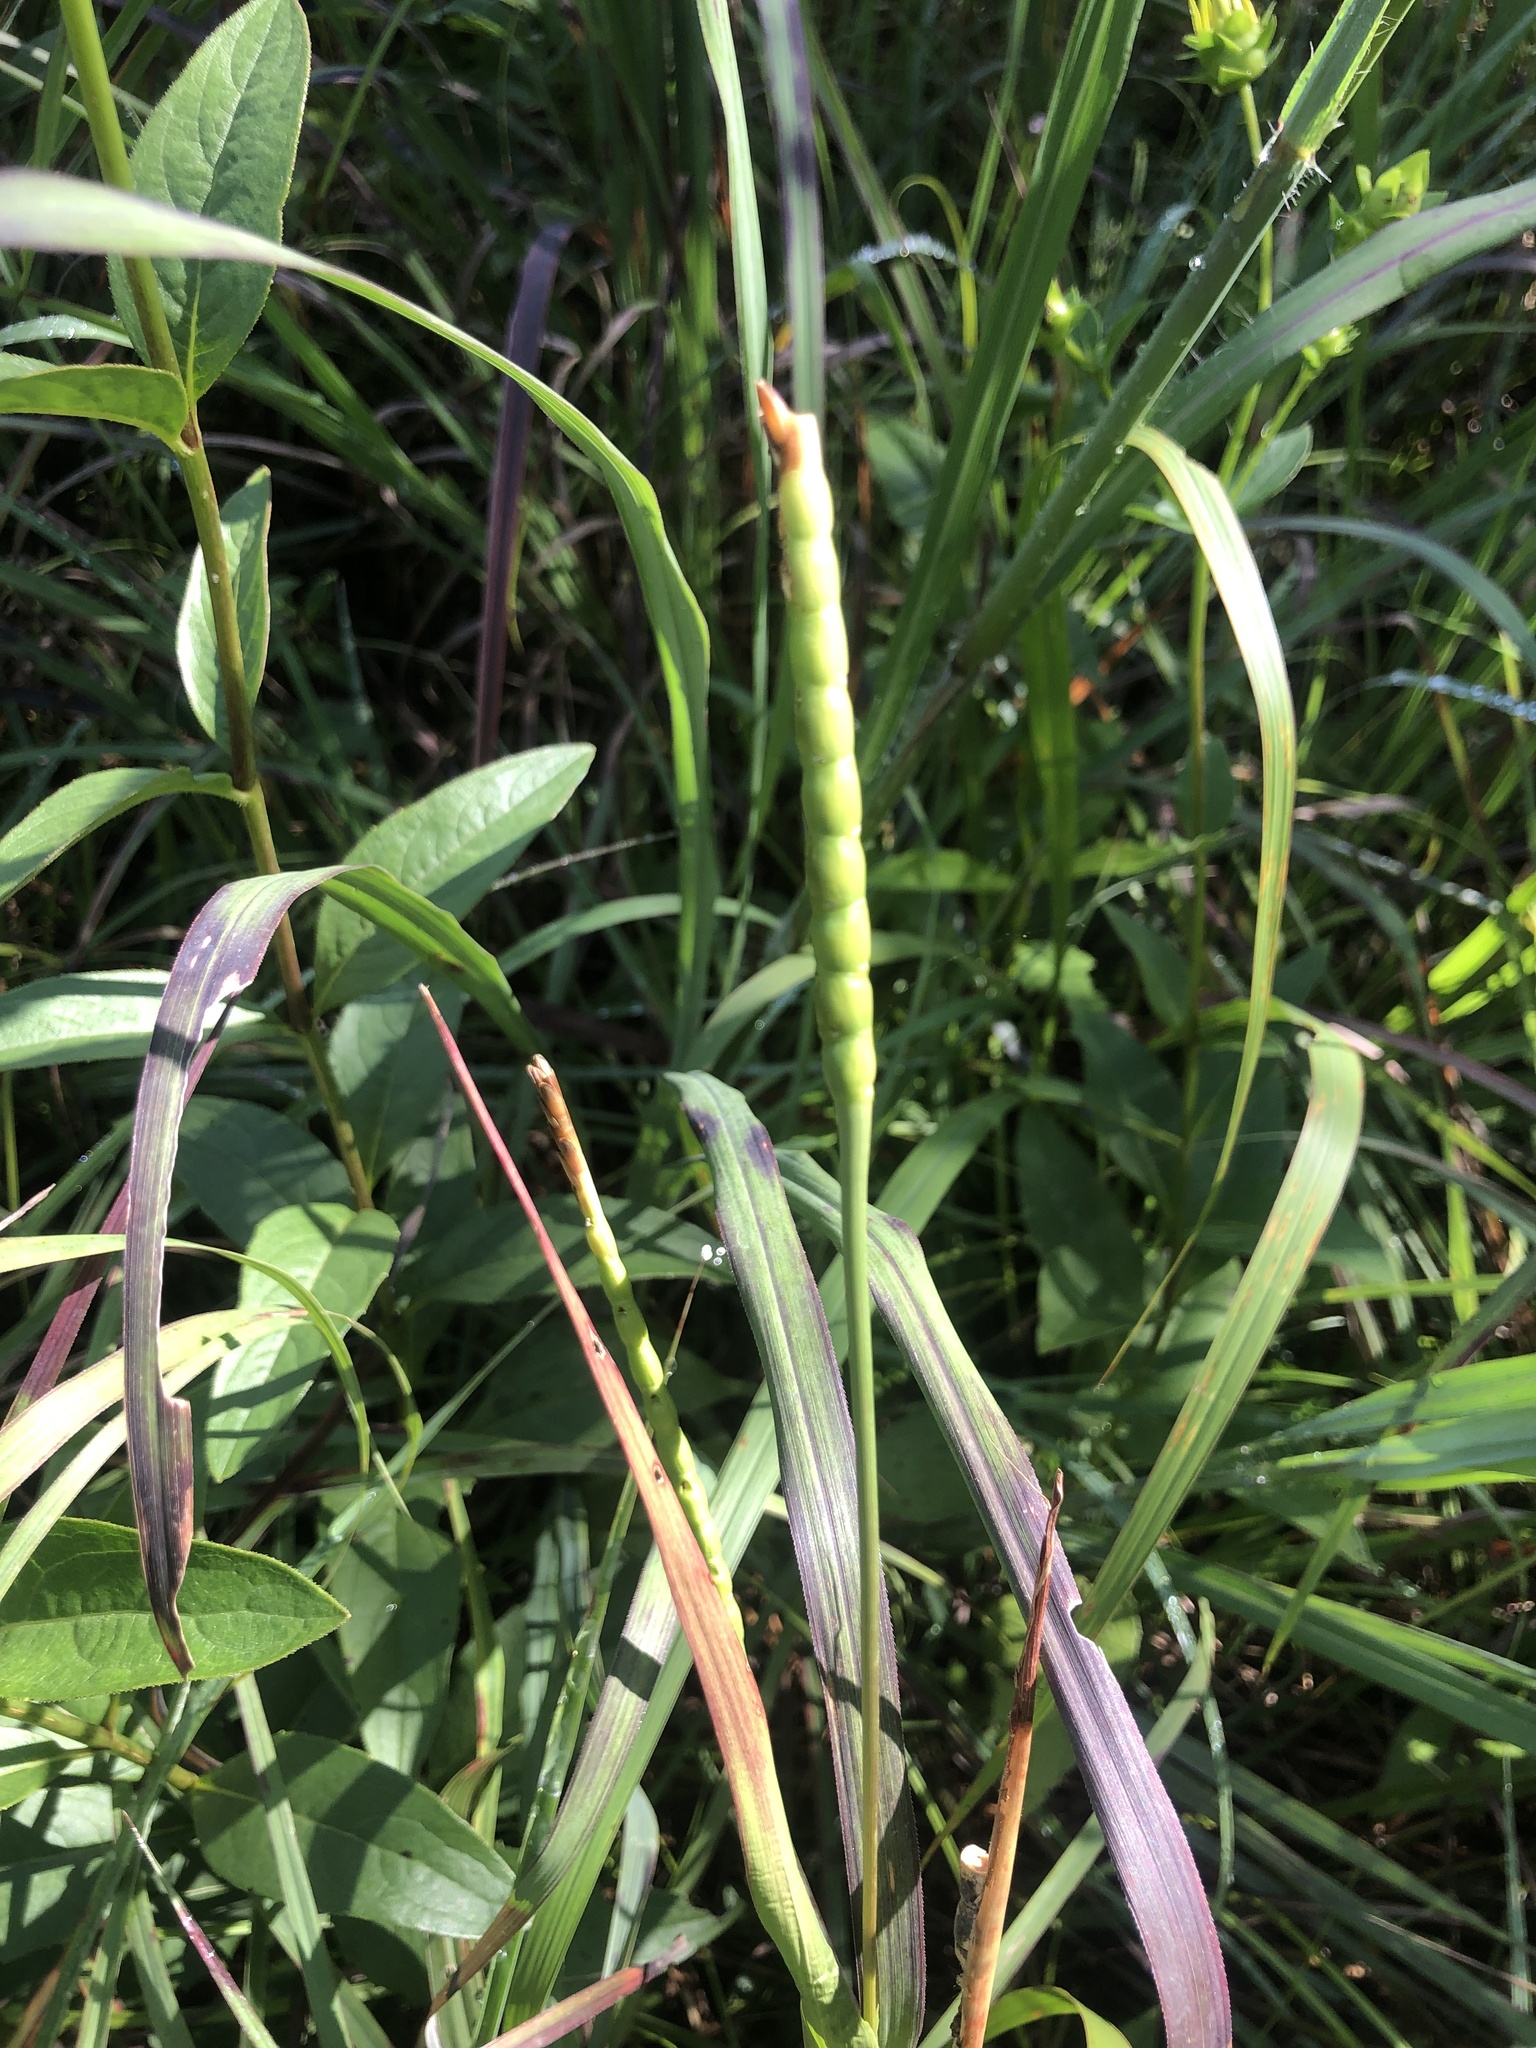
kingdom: Plantae
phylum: Tracheophyta
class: Liliopsida
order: Poales
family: Poaceae
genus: Tripsacum
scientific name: Tripsacum dactyloides
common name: Buffalo-grass
